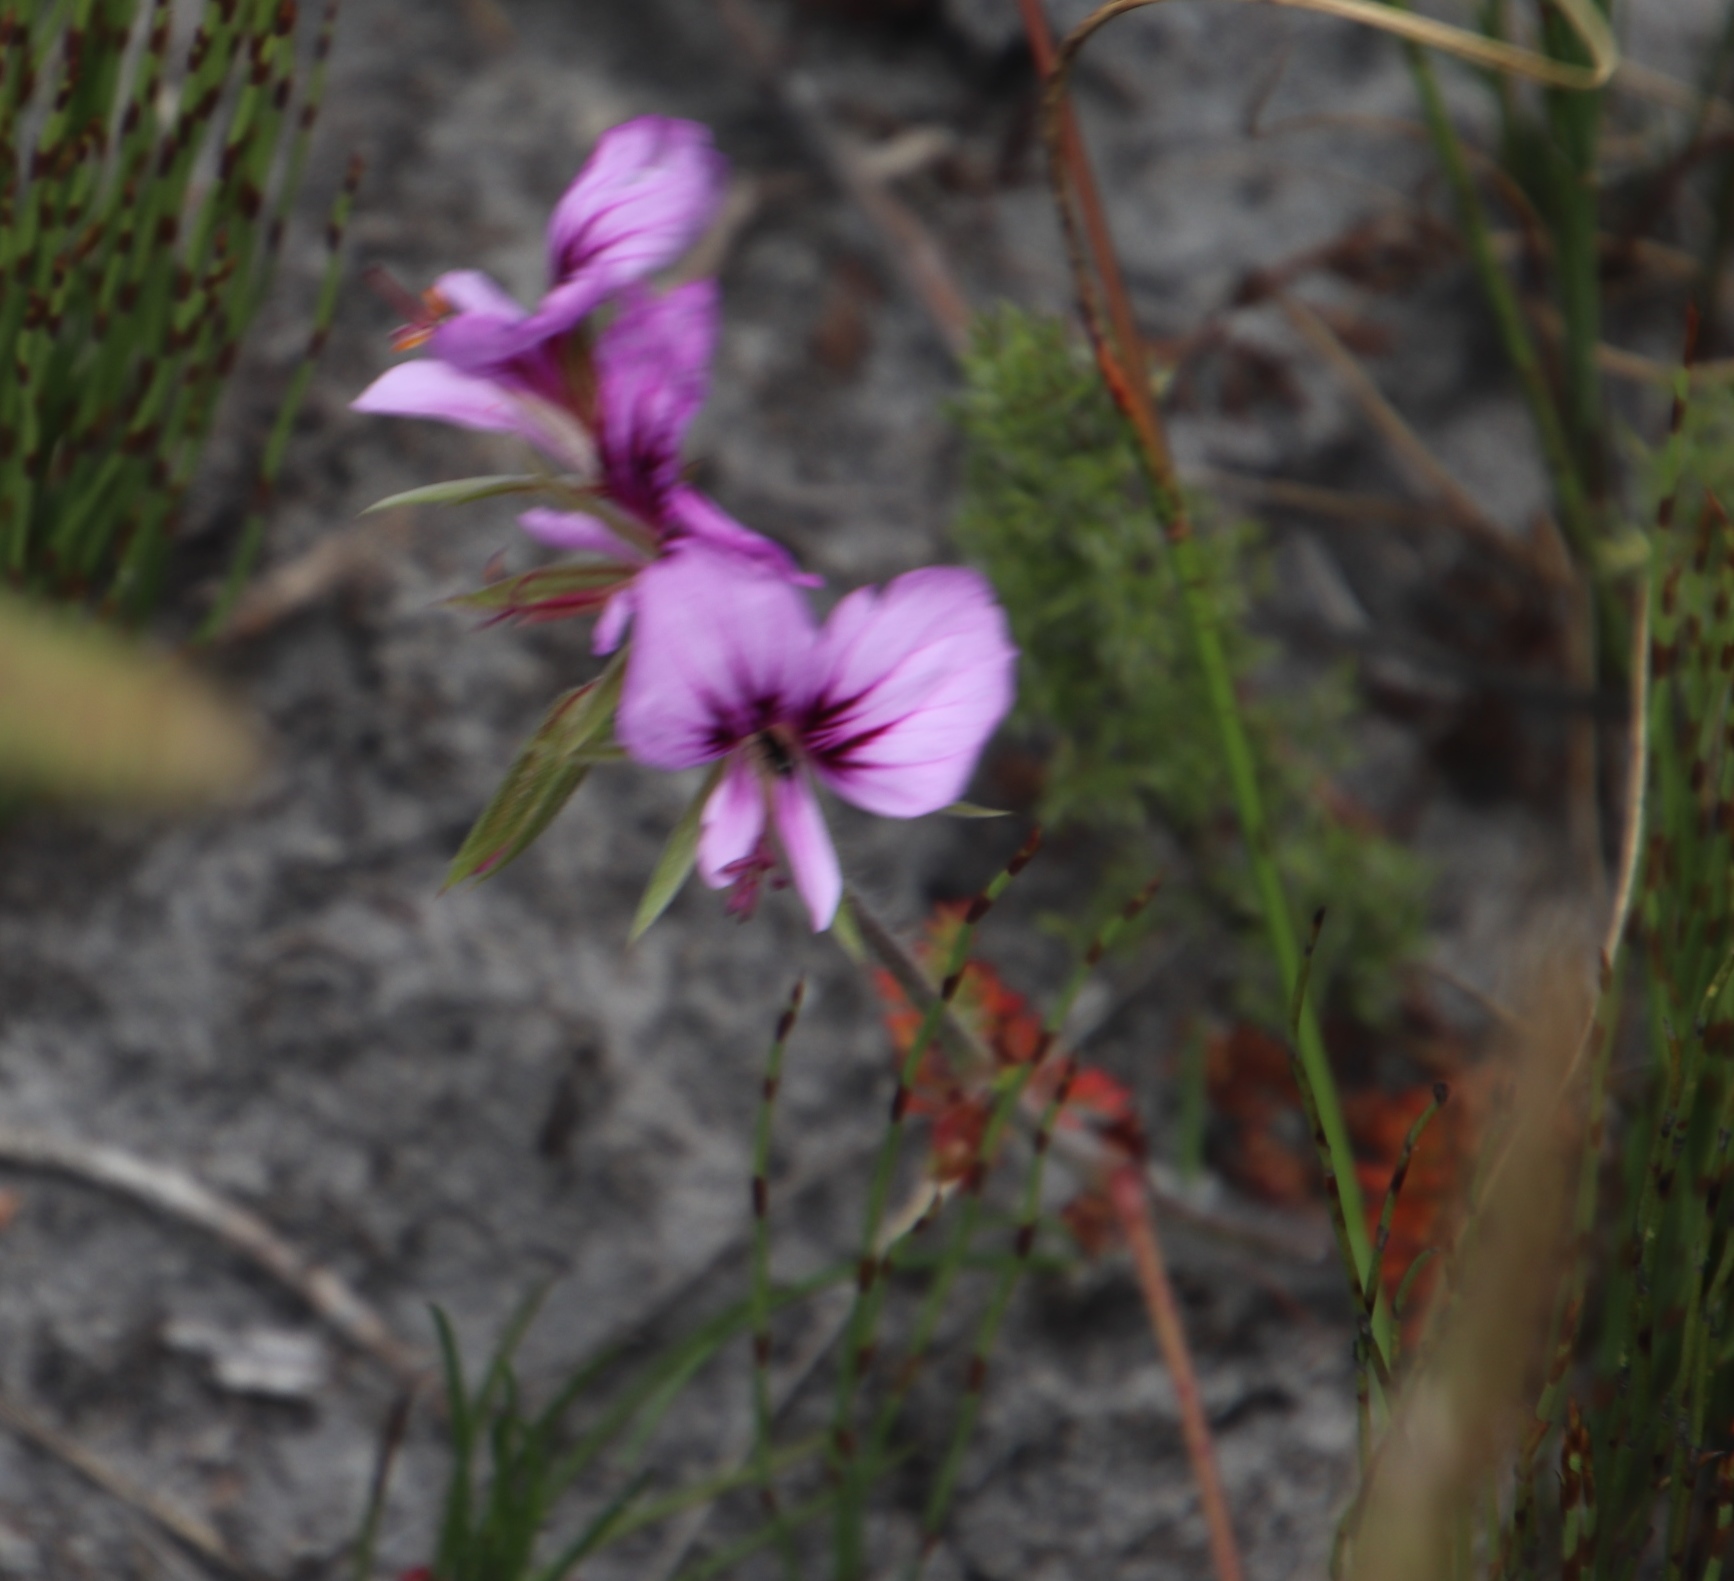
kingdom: Plantae
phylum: Tracheophyta
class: Magnoliopsida
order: Geraniales
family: Geraniaceae
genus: Pelargonium
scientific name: Pelargonium myrrhifolium
